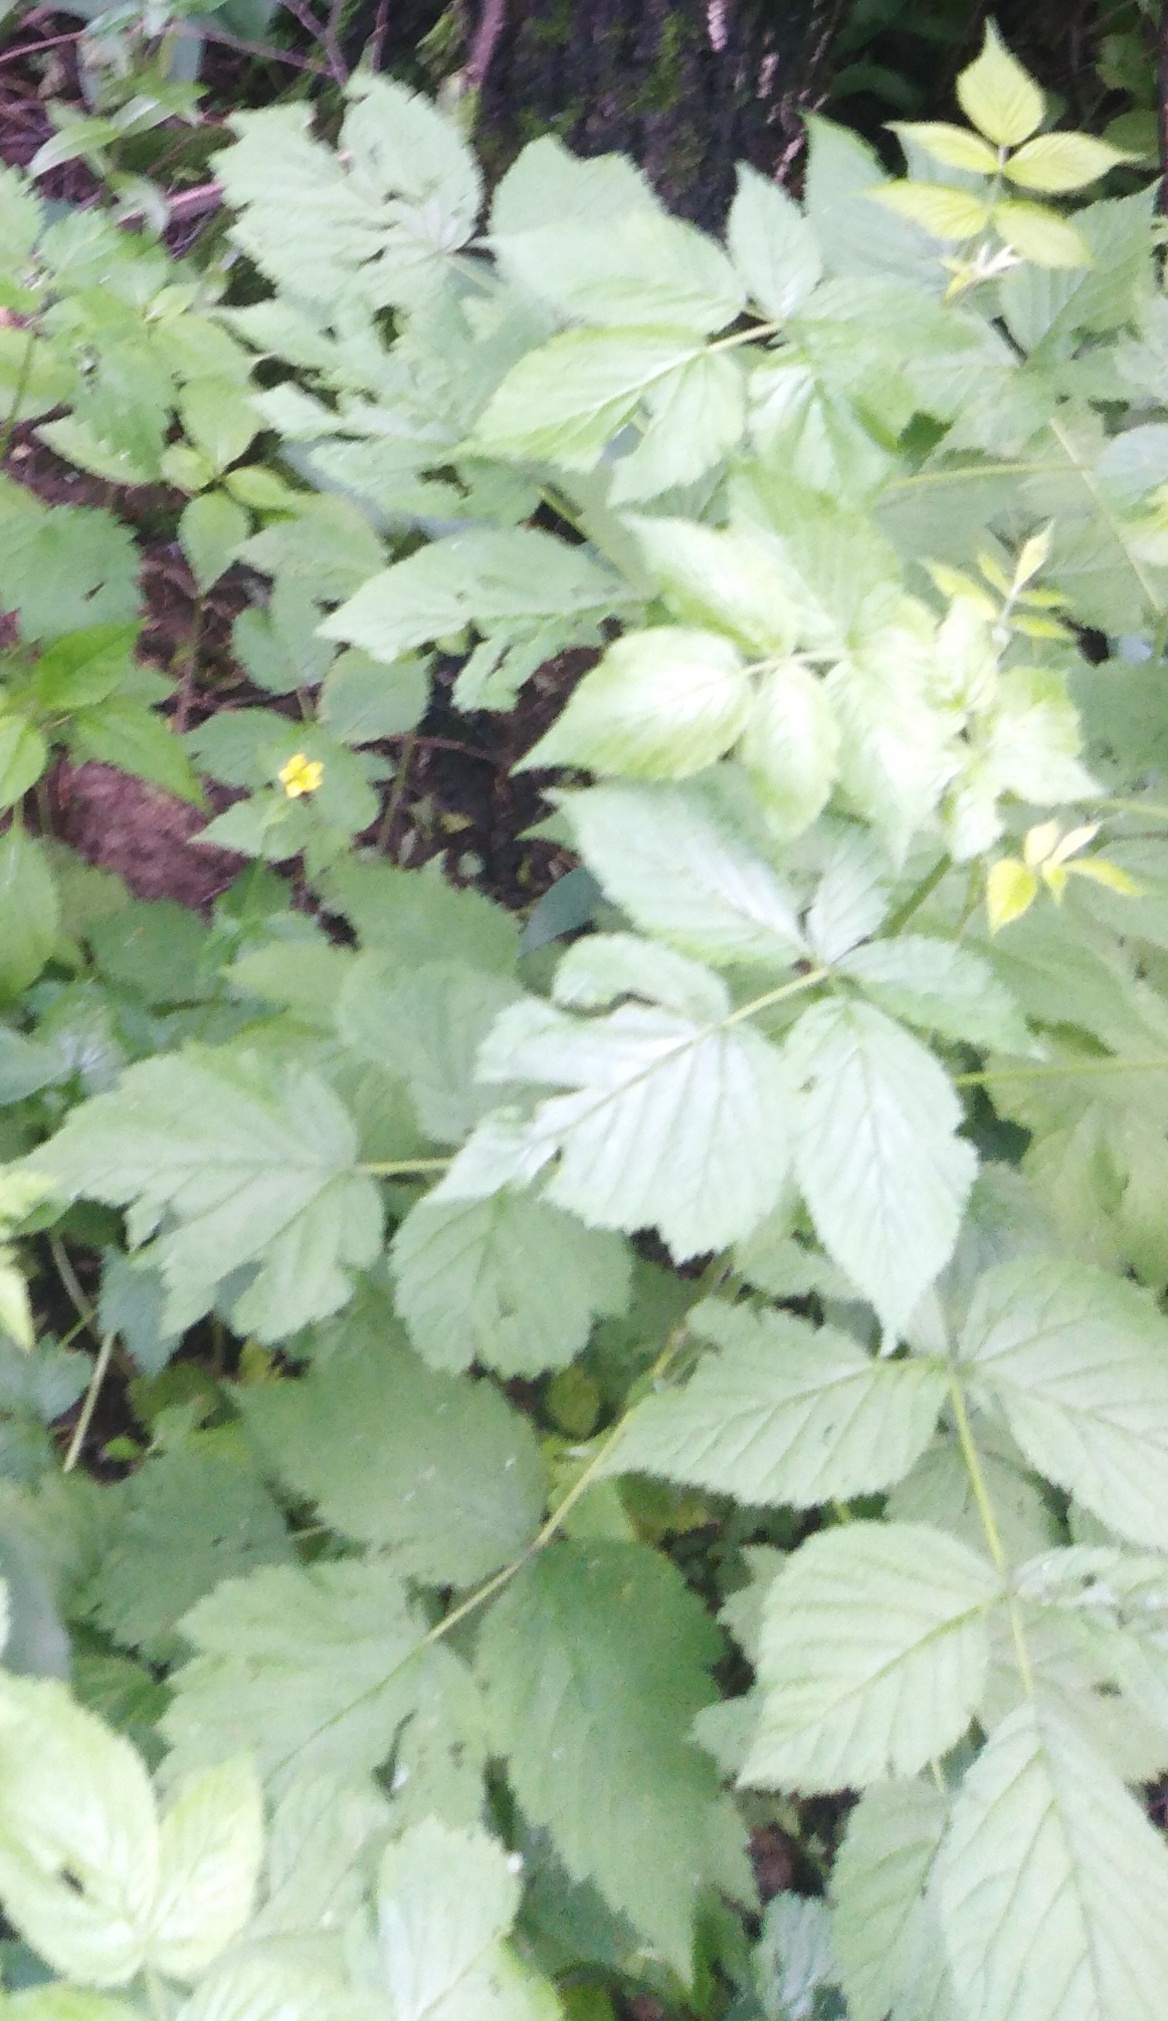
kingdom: Plantae
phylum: Tracheophyta
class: Magnoliopsida
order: Rosales
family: Rosaceae
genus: Rubus
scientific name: Rubus idaeus
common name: Raspberry
